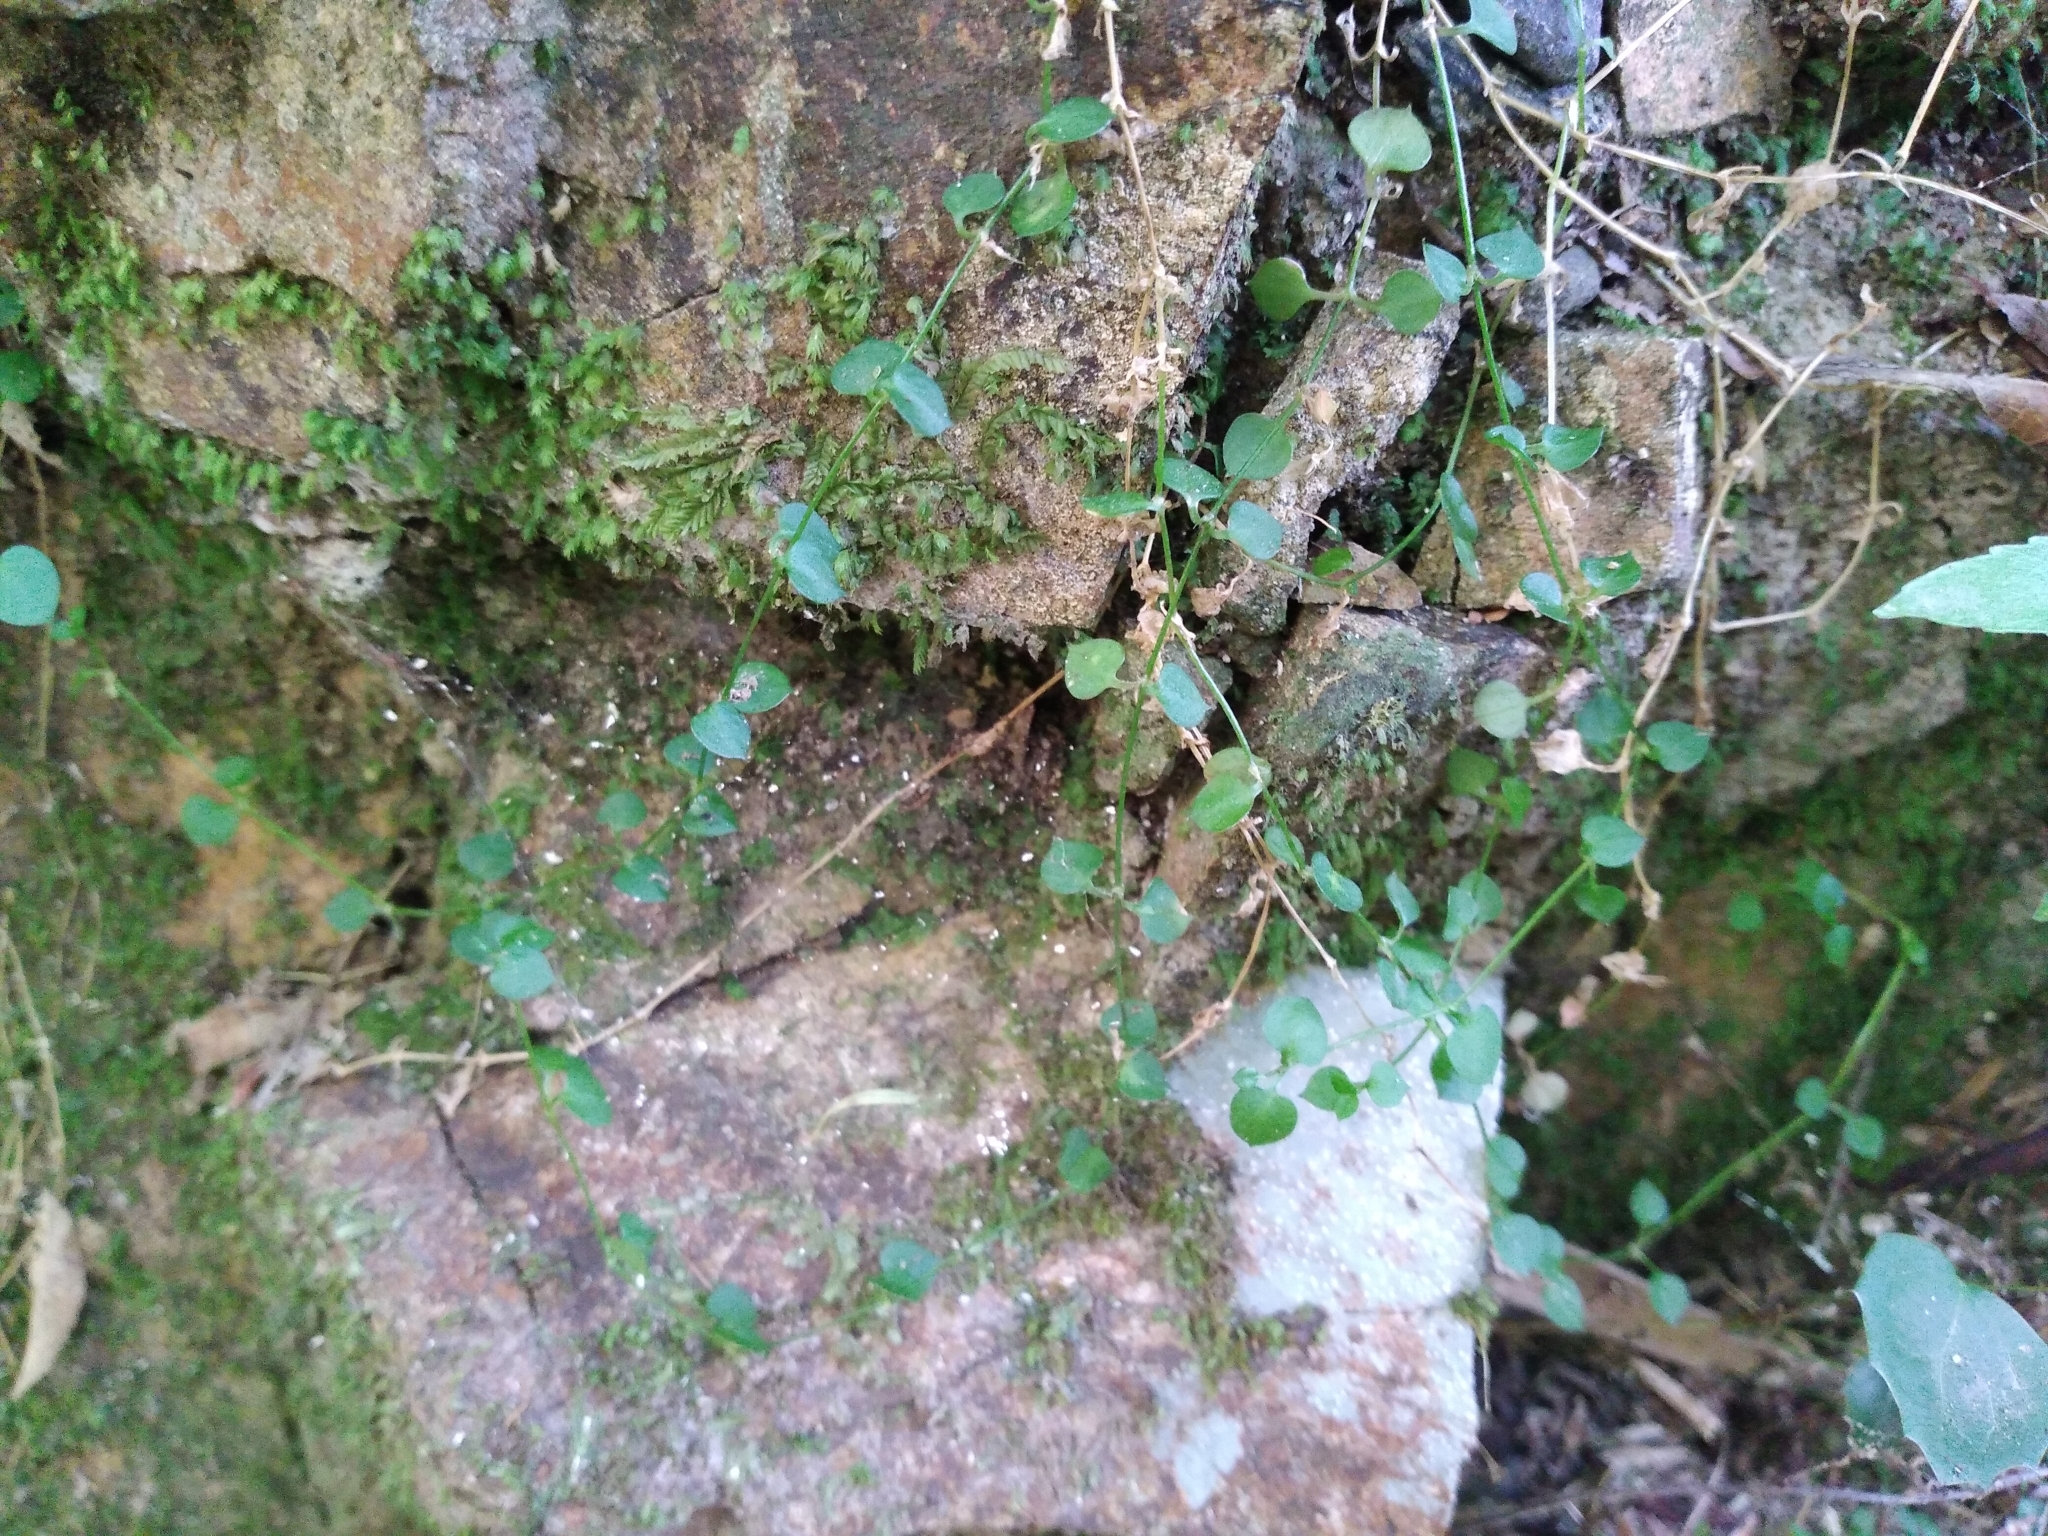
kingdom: Plantae
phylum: Tracheophyta
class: Magnoliopsida
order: Caryophyllales
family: Caryophyllaceae
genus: Stellaria
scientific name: Stellaria parviflora
